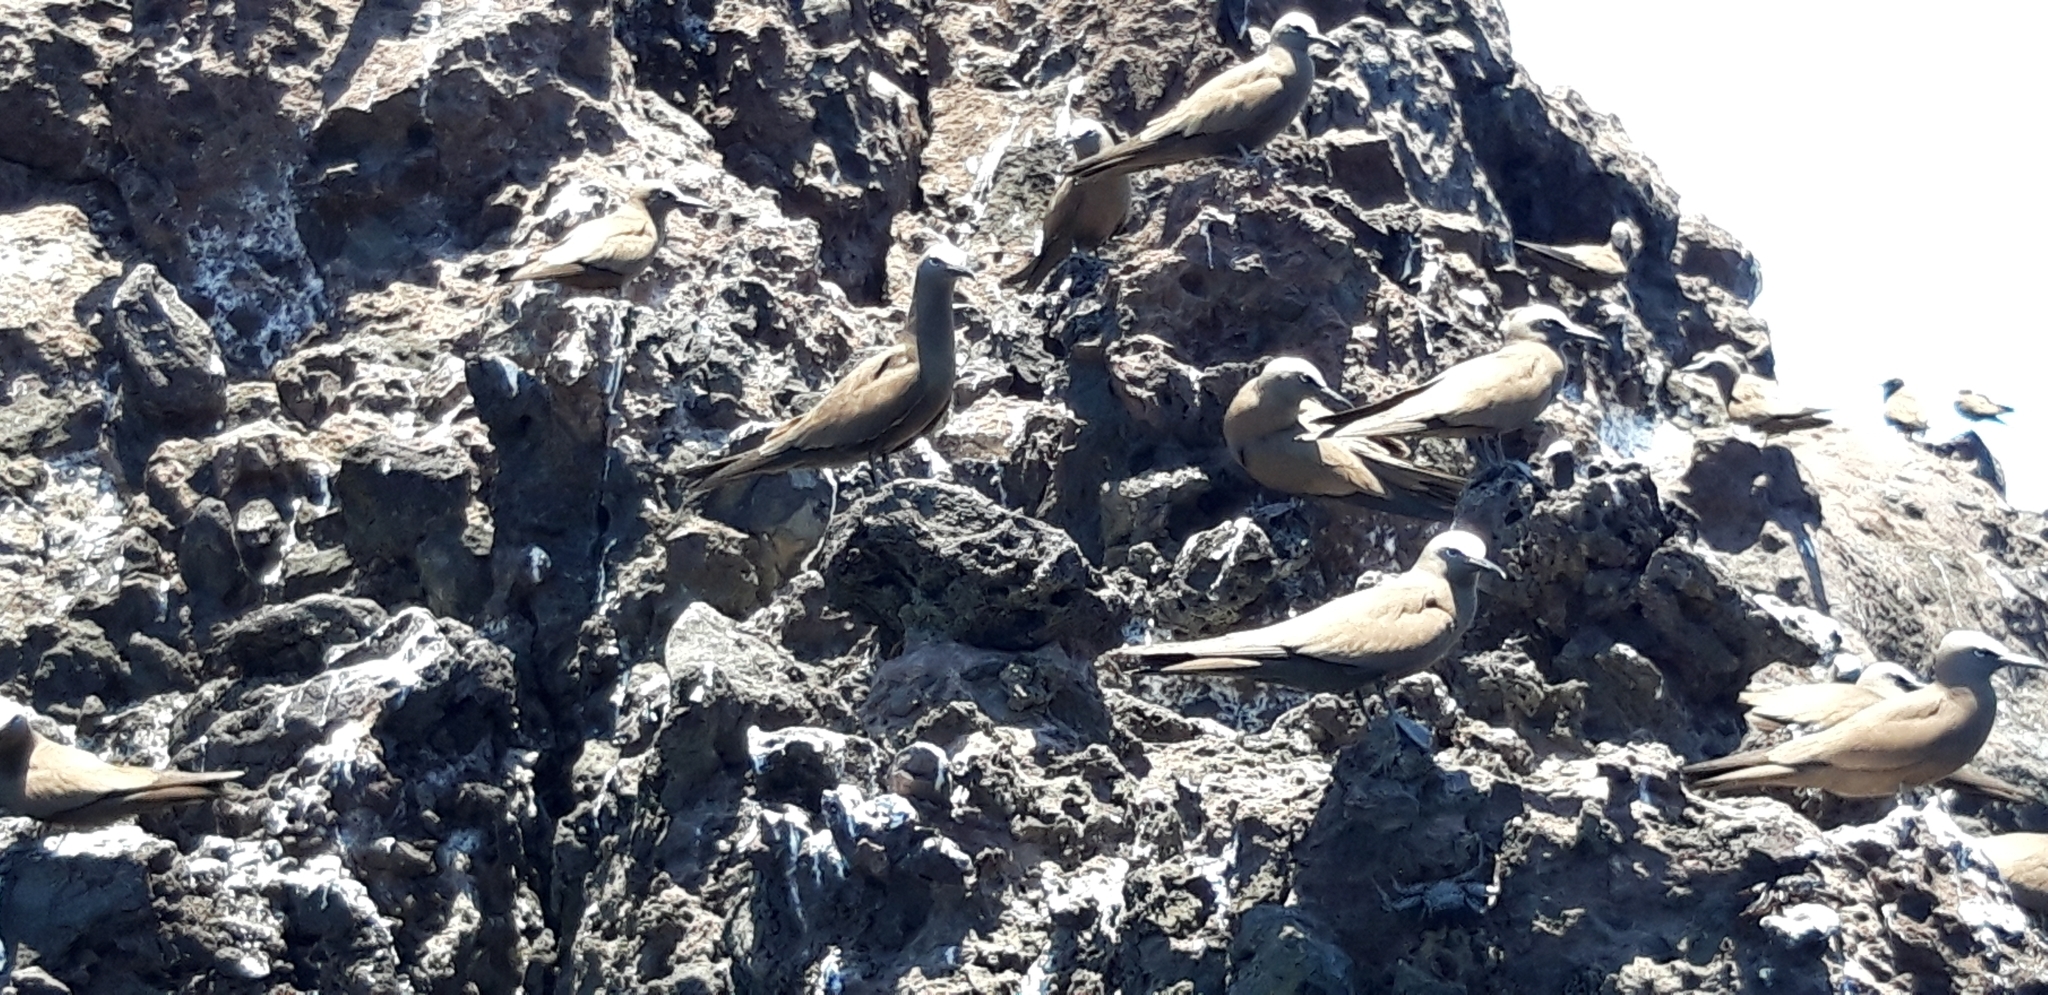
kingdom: Animalia
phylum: Chordata
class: Aves
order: Charadriiformes
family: Laridae
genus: Anous
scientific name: Anous stolidus
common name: Brown noddy
